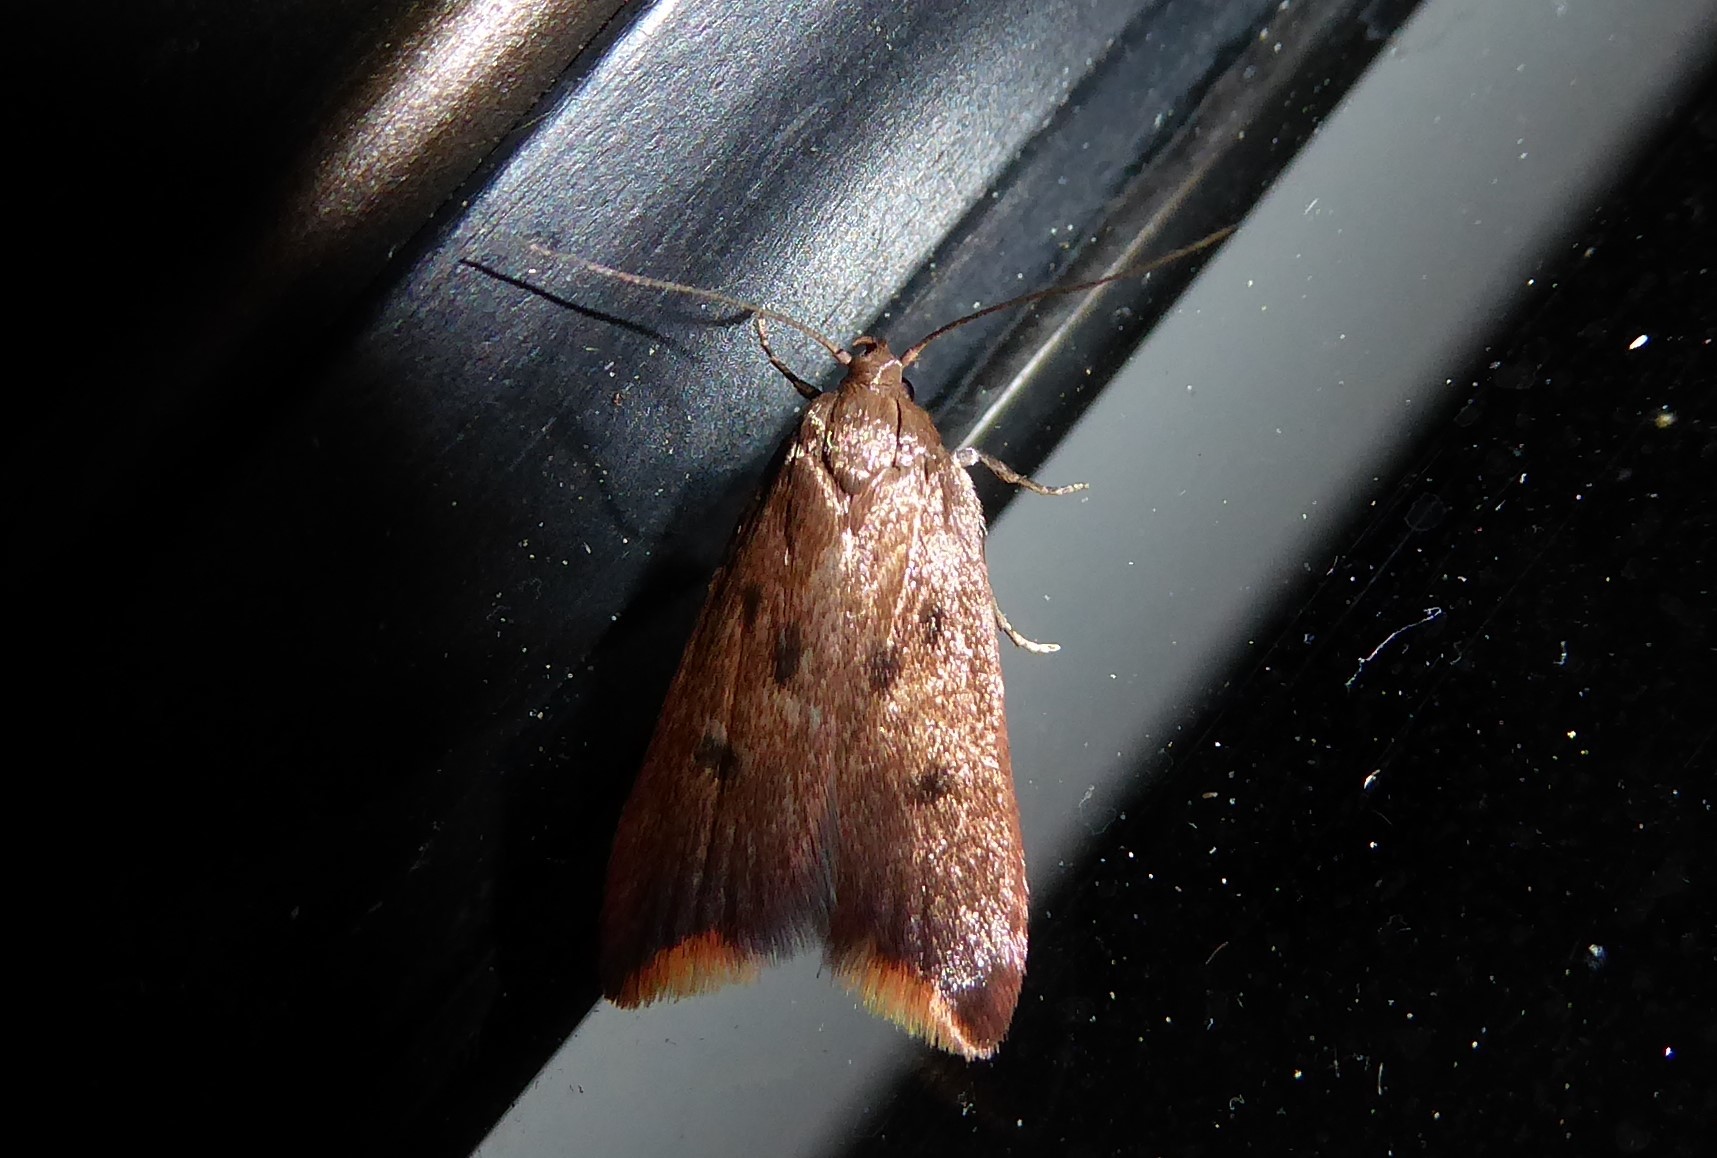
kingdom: Animalia
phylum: Arthropoda
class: Insecta
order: Lepidoptera
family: Oecophoridae
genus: Tachystola
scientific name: Tachystola acroxantha
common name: Ruddy streak
